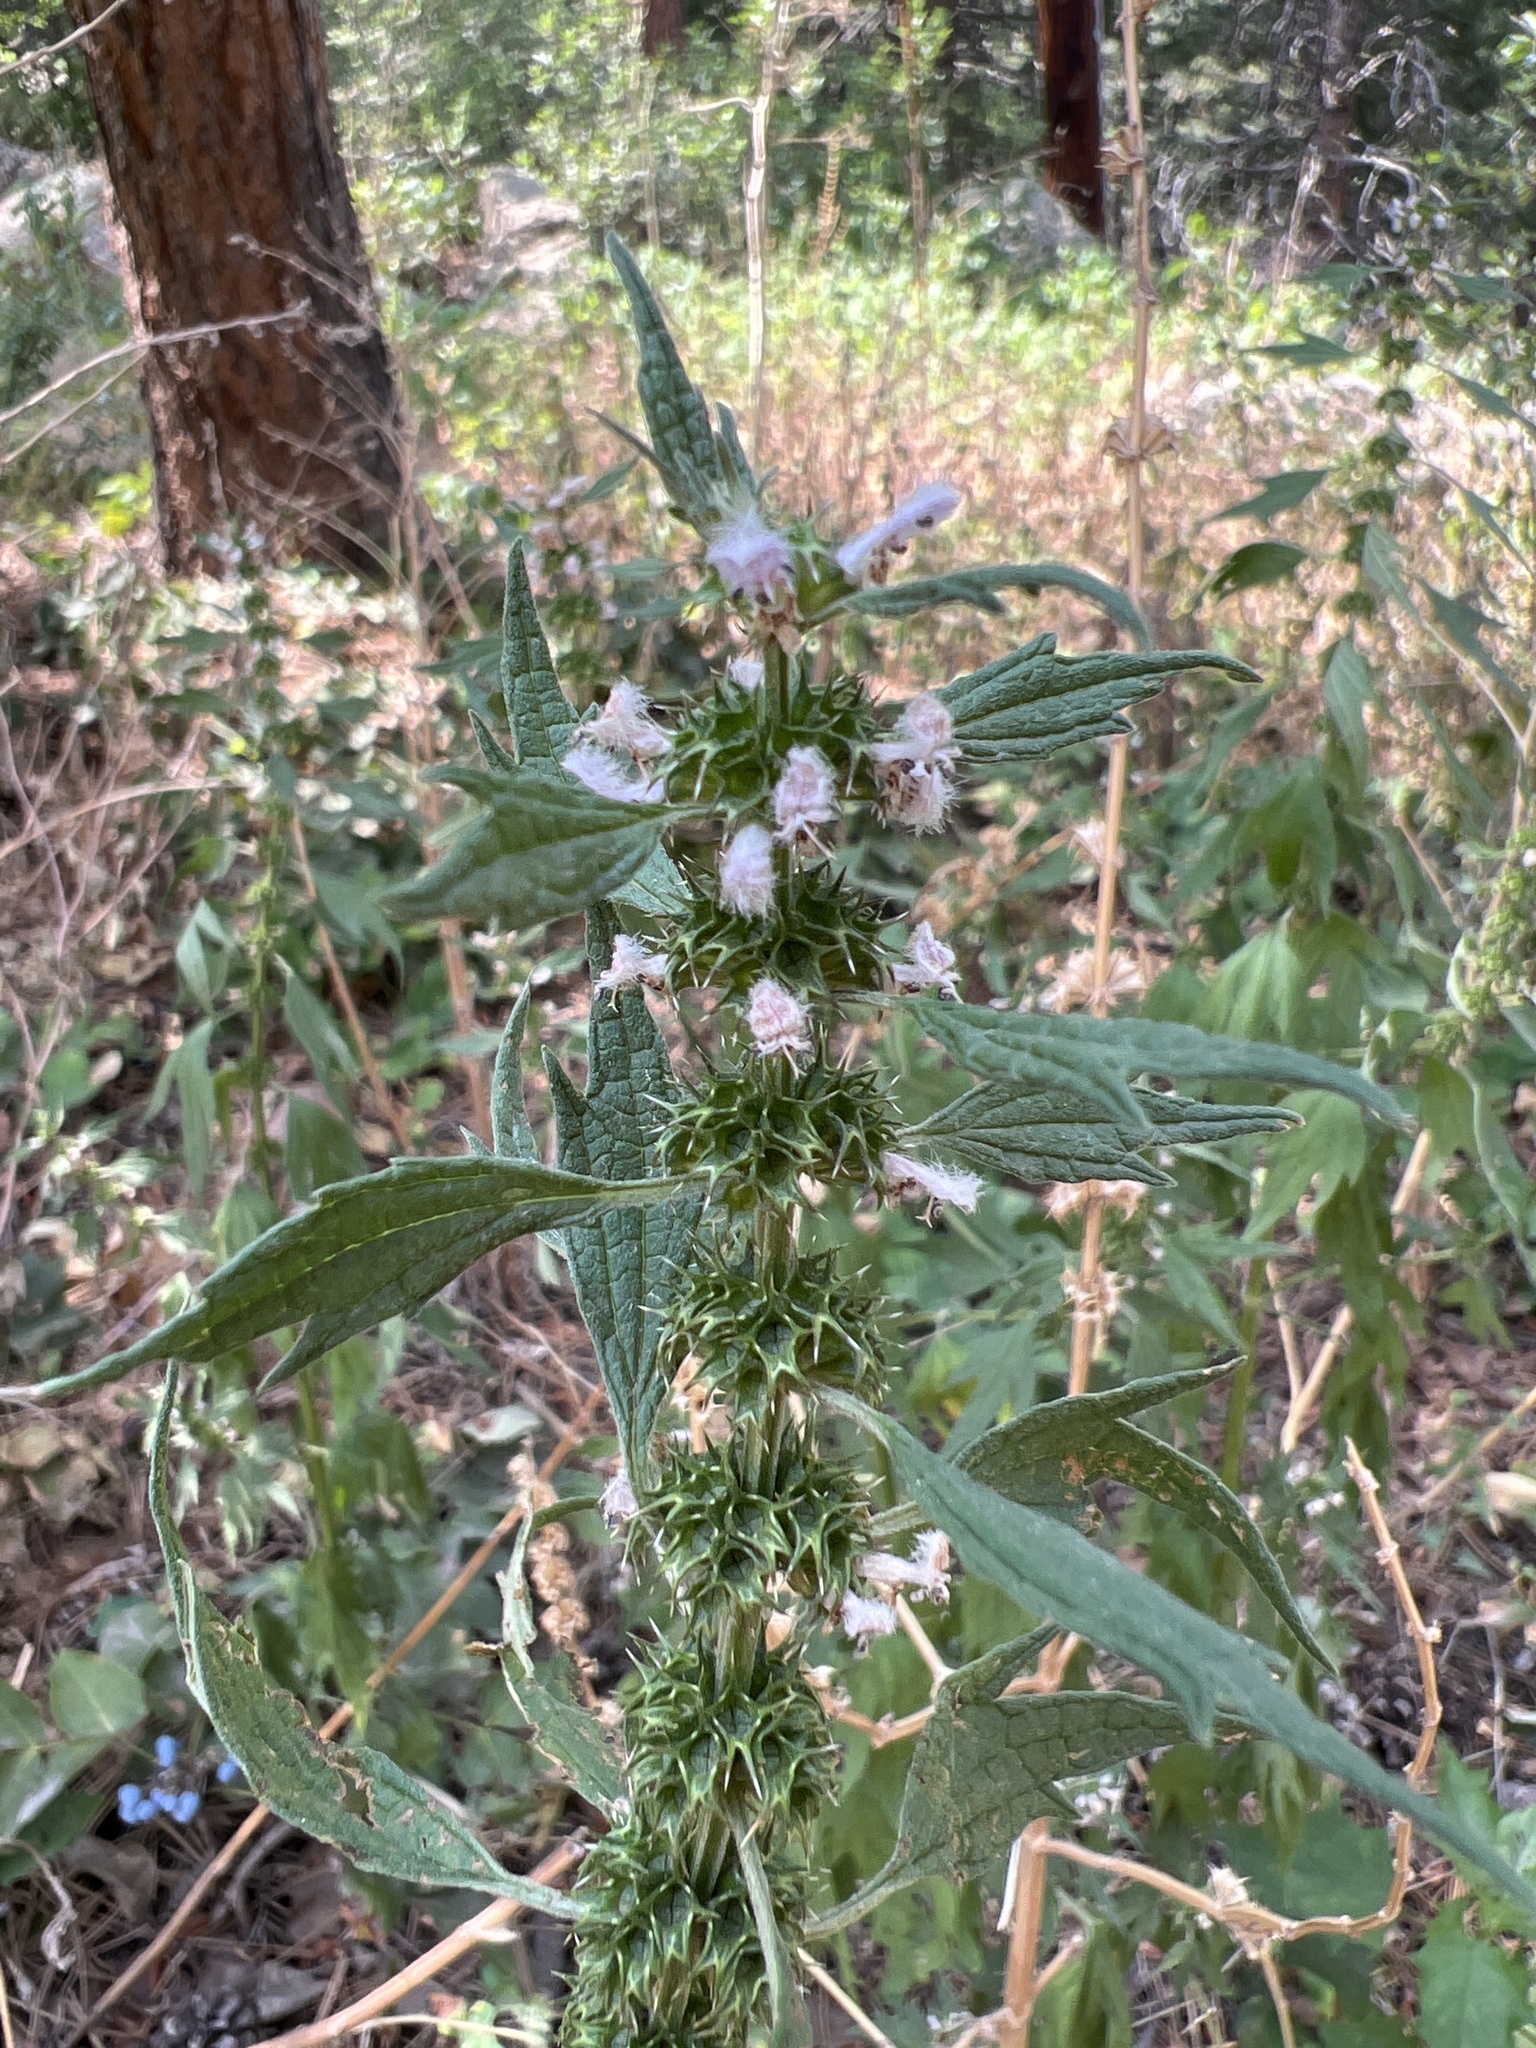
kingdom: Plantae
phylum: Tracheophyta
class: Magnoliopsida
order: Lamiales
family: Lamiaceae
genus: Leonurus
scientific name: Leonurus cardiaca
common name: Motherwort
